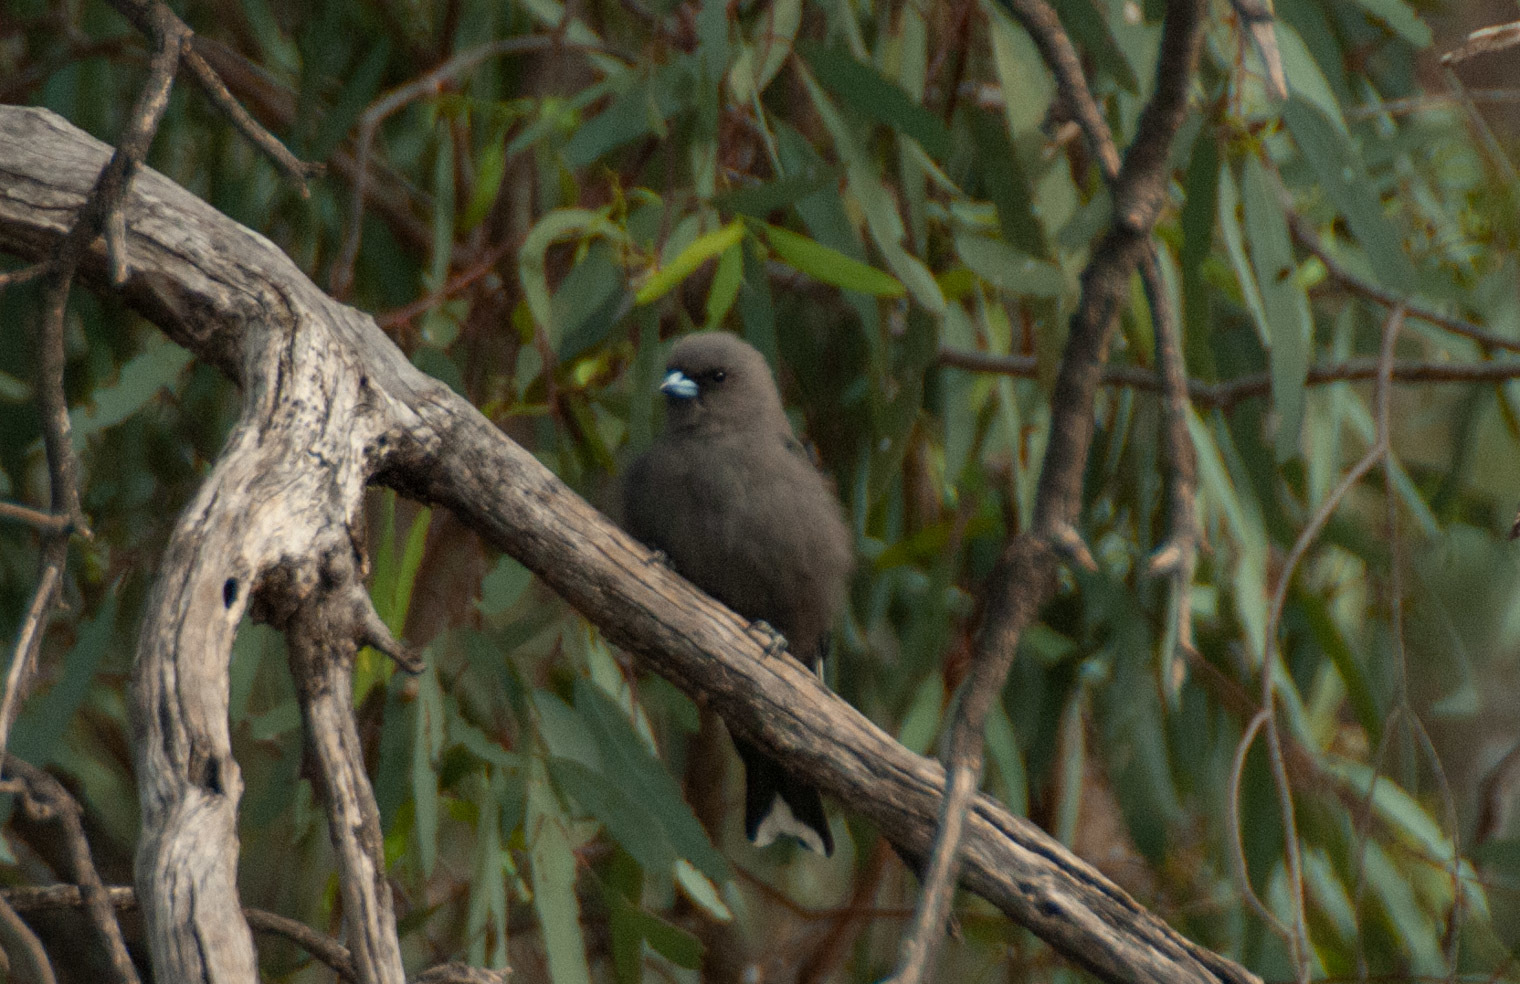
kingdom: Animalia
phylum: Chordata
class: Aves
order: Passeriformes
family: Artamidae
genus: Artamus
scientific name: Artamus cyanopterus
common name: Dusky woodswallow
